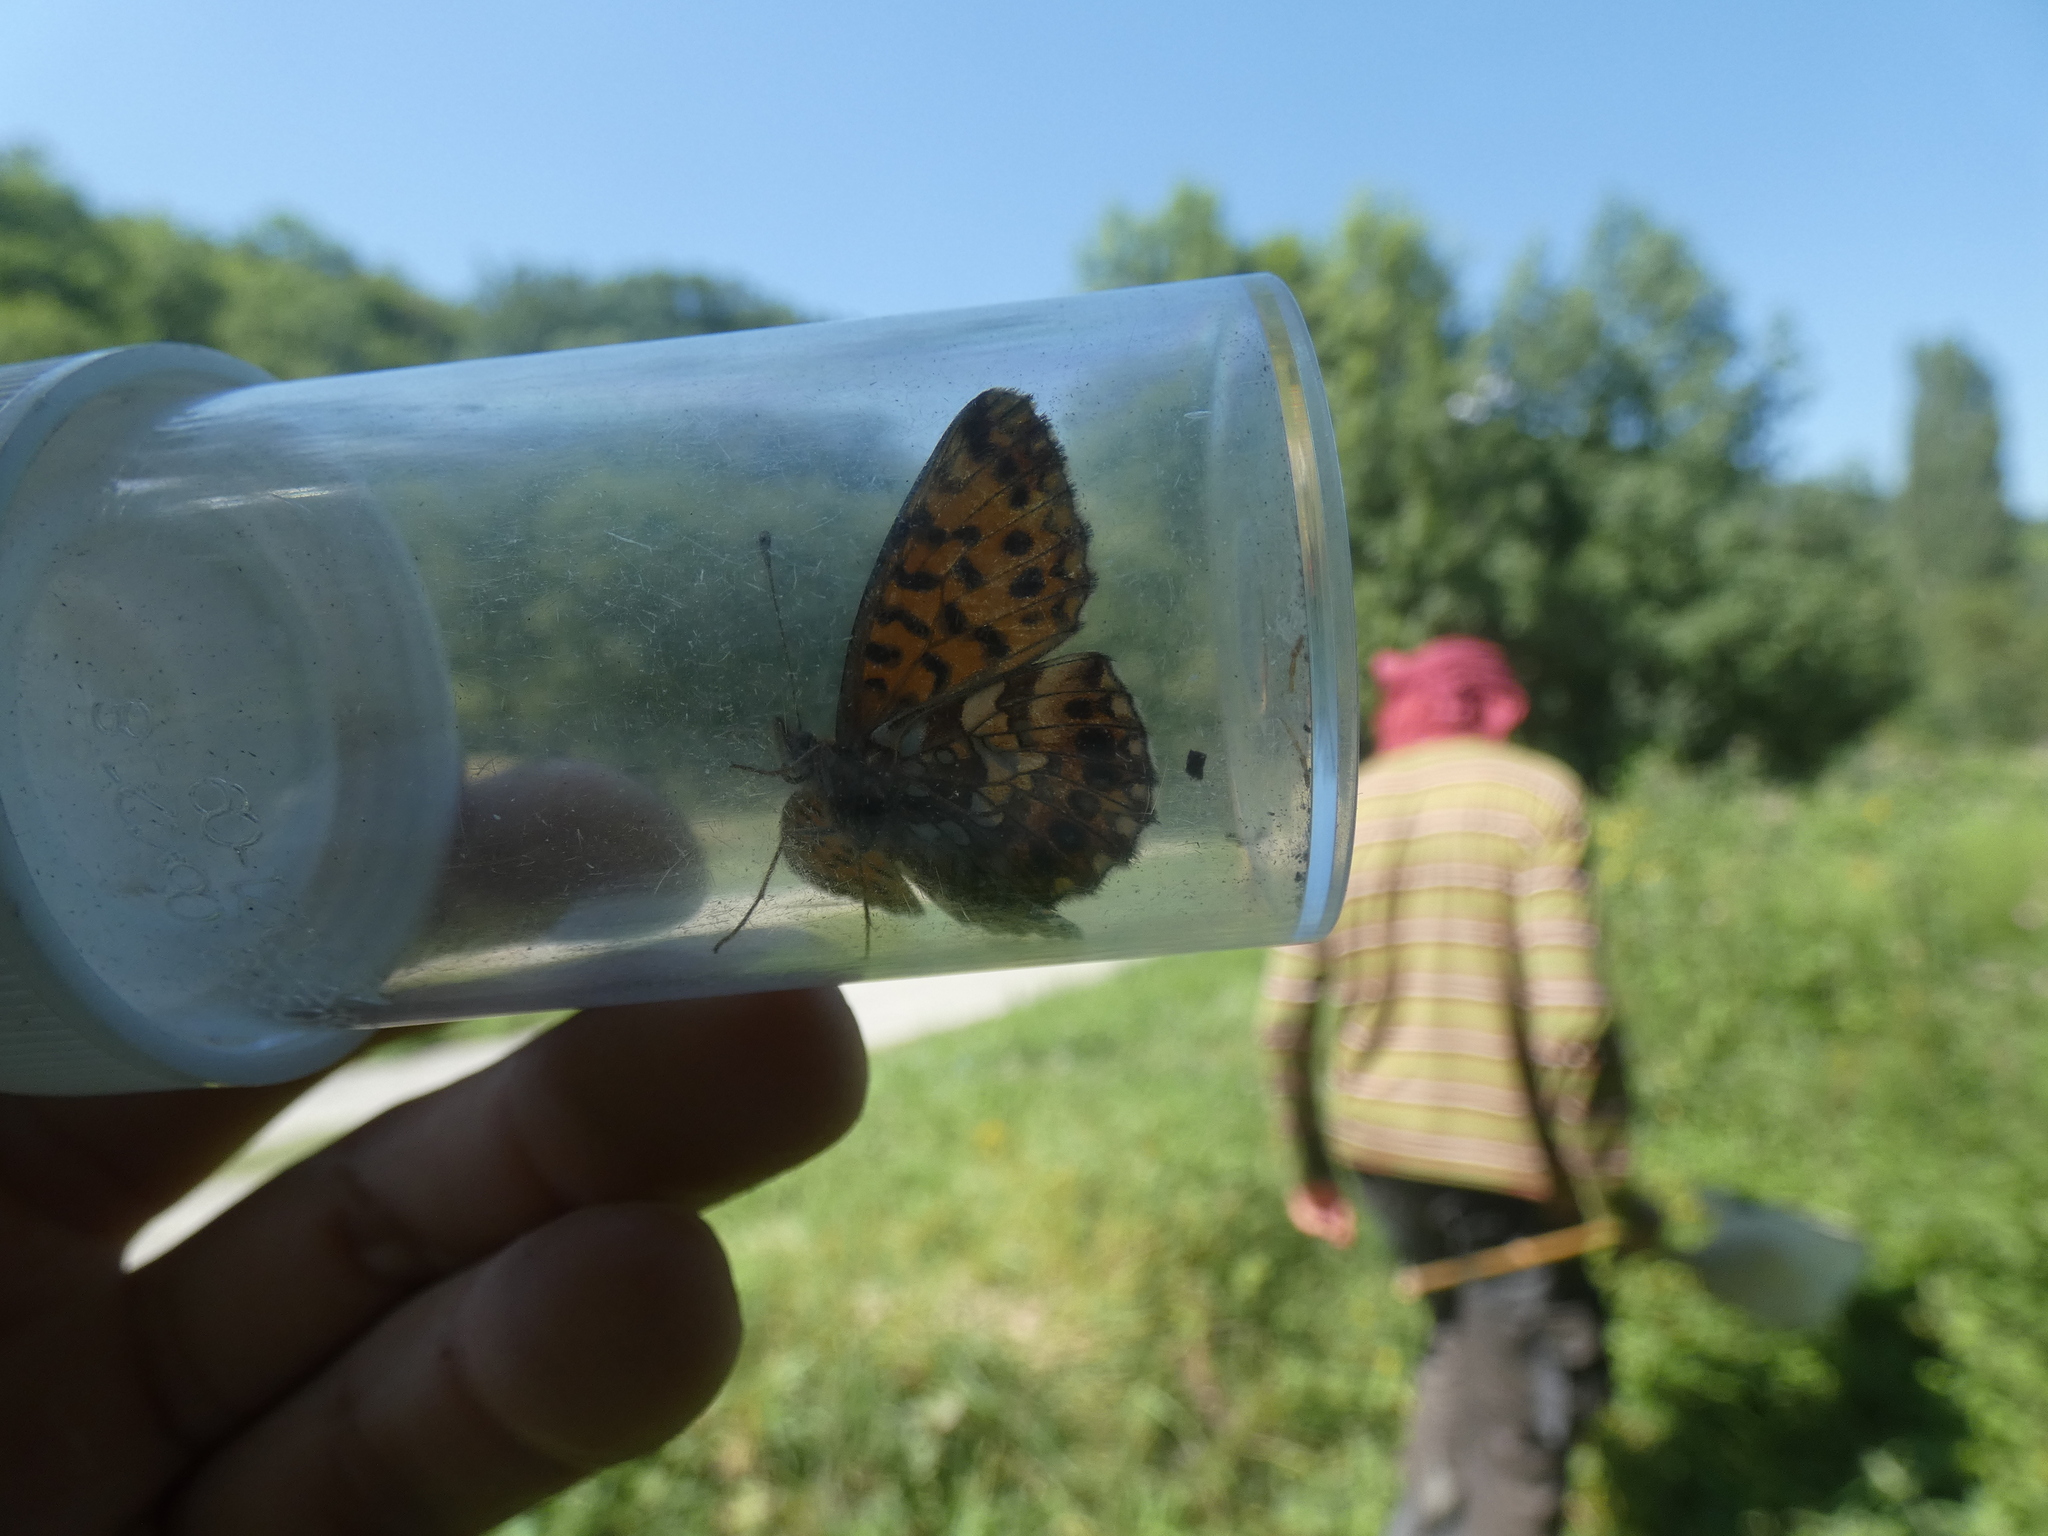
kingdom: Animalia
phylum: Arthropoda
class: Insecta
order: Lepidoptera
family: Nymphalidae
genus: Boloria
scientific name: Boloria dia
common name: Weaver's fritillary
